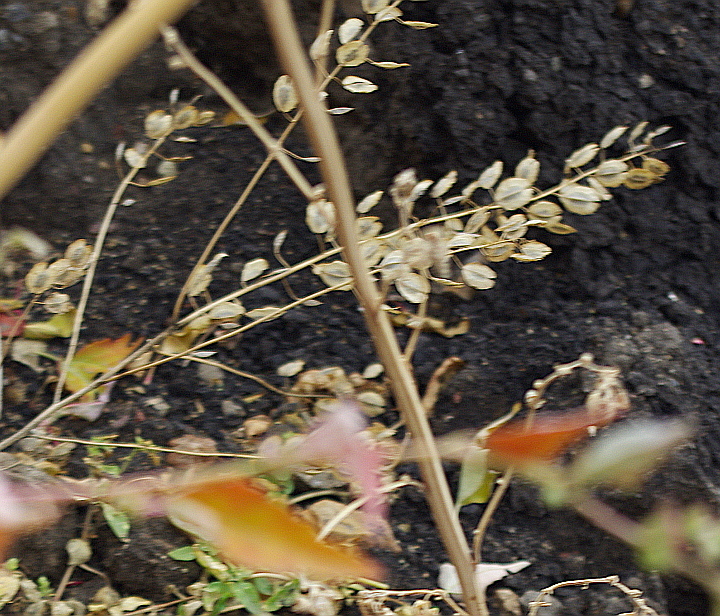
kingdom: Plantae
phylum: Tracheophyta
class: Magnoliopsida
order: Brassicales
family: Brassicaceae
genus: Thlaspi
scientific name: Thlaspi arvense
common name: Field pennycress
